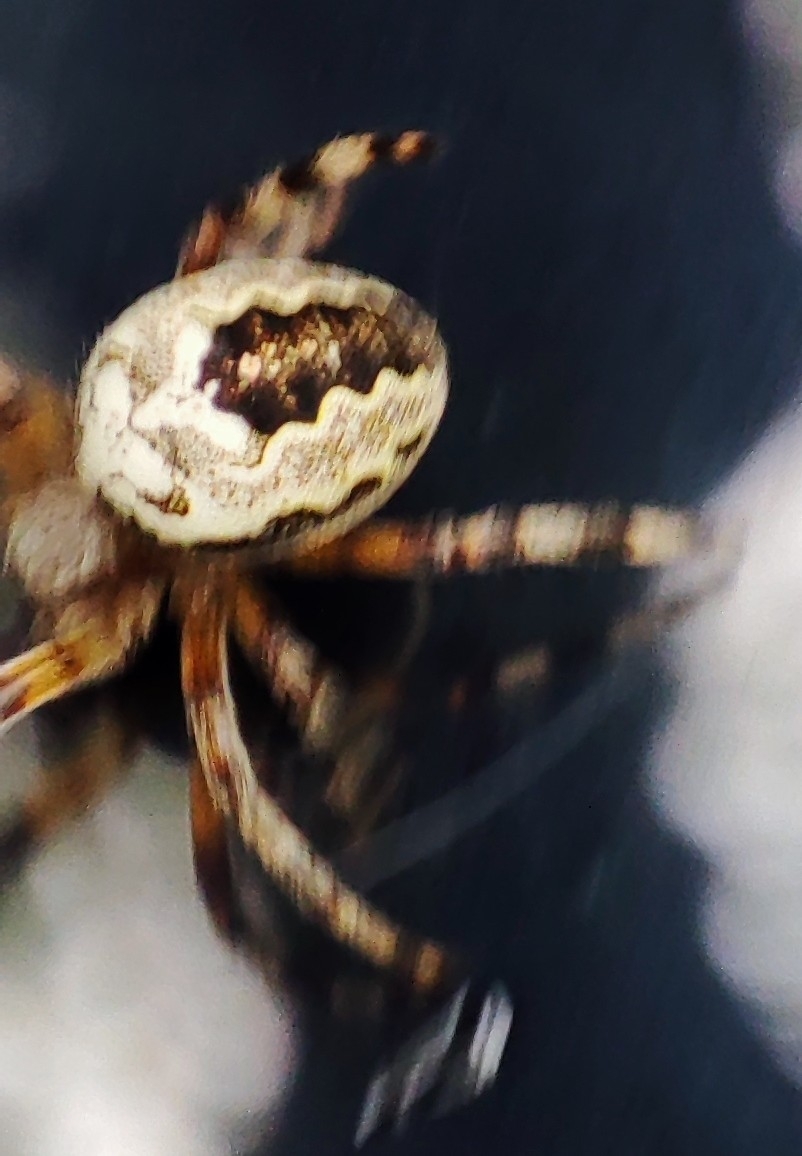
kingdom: Animalia
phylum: Arthropoda
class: Arachnida
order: Araneae
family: Araneidae
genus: Araneus
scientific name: Araneus marmoreus
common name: Marbled orbweaver
